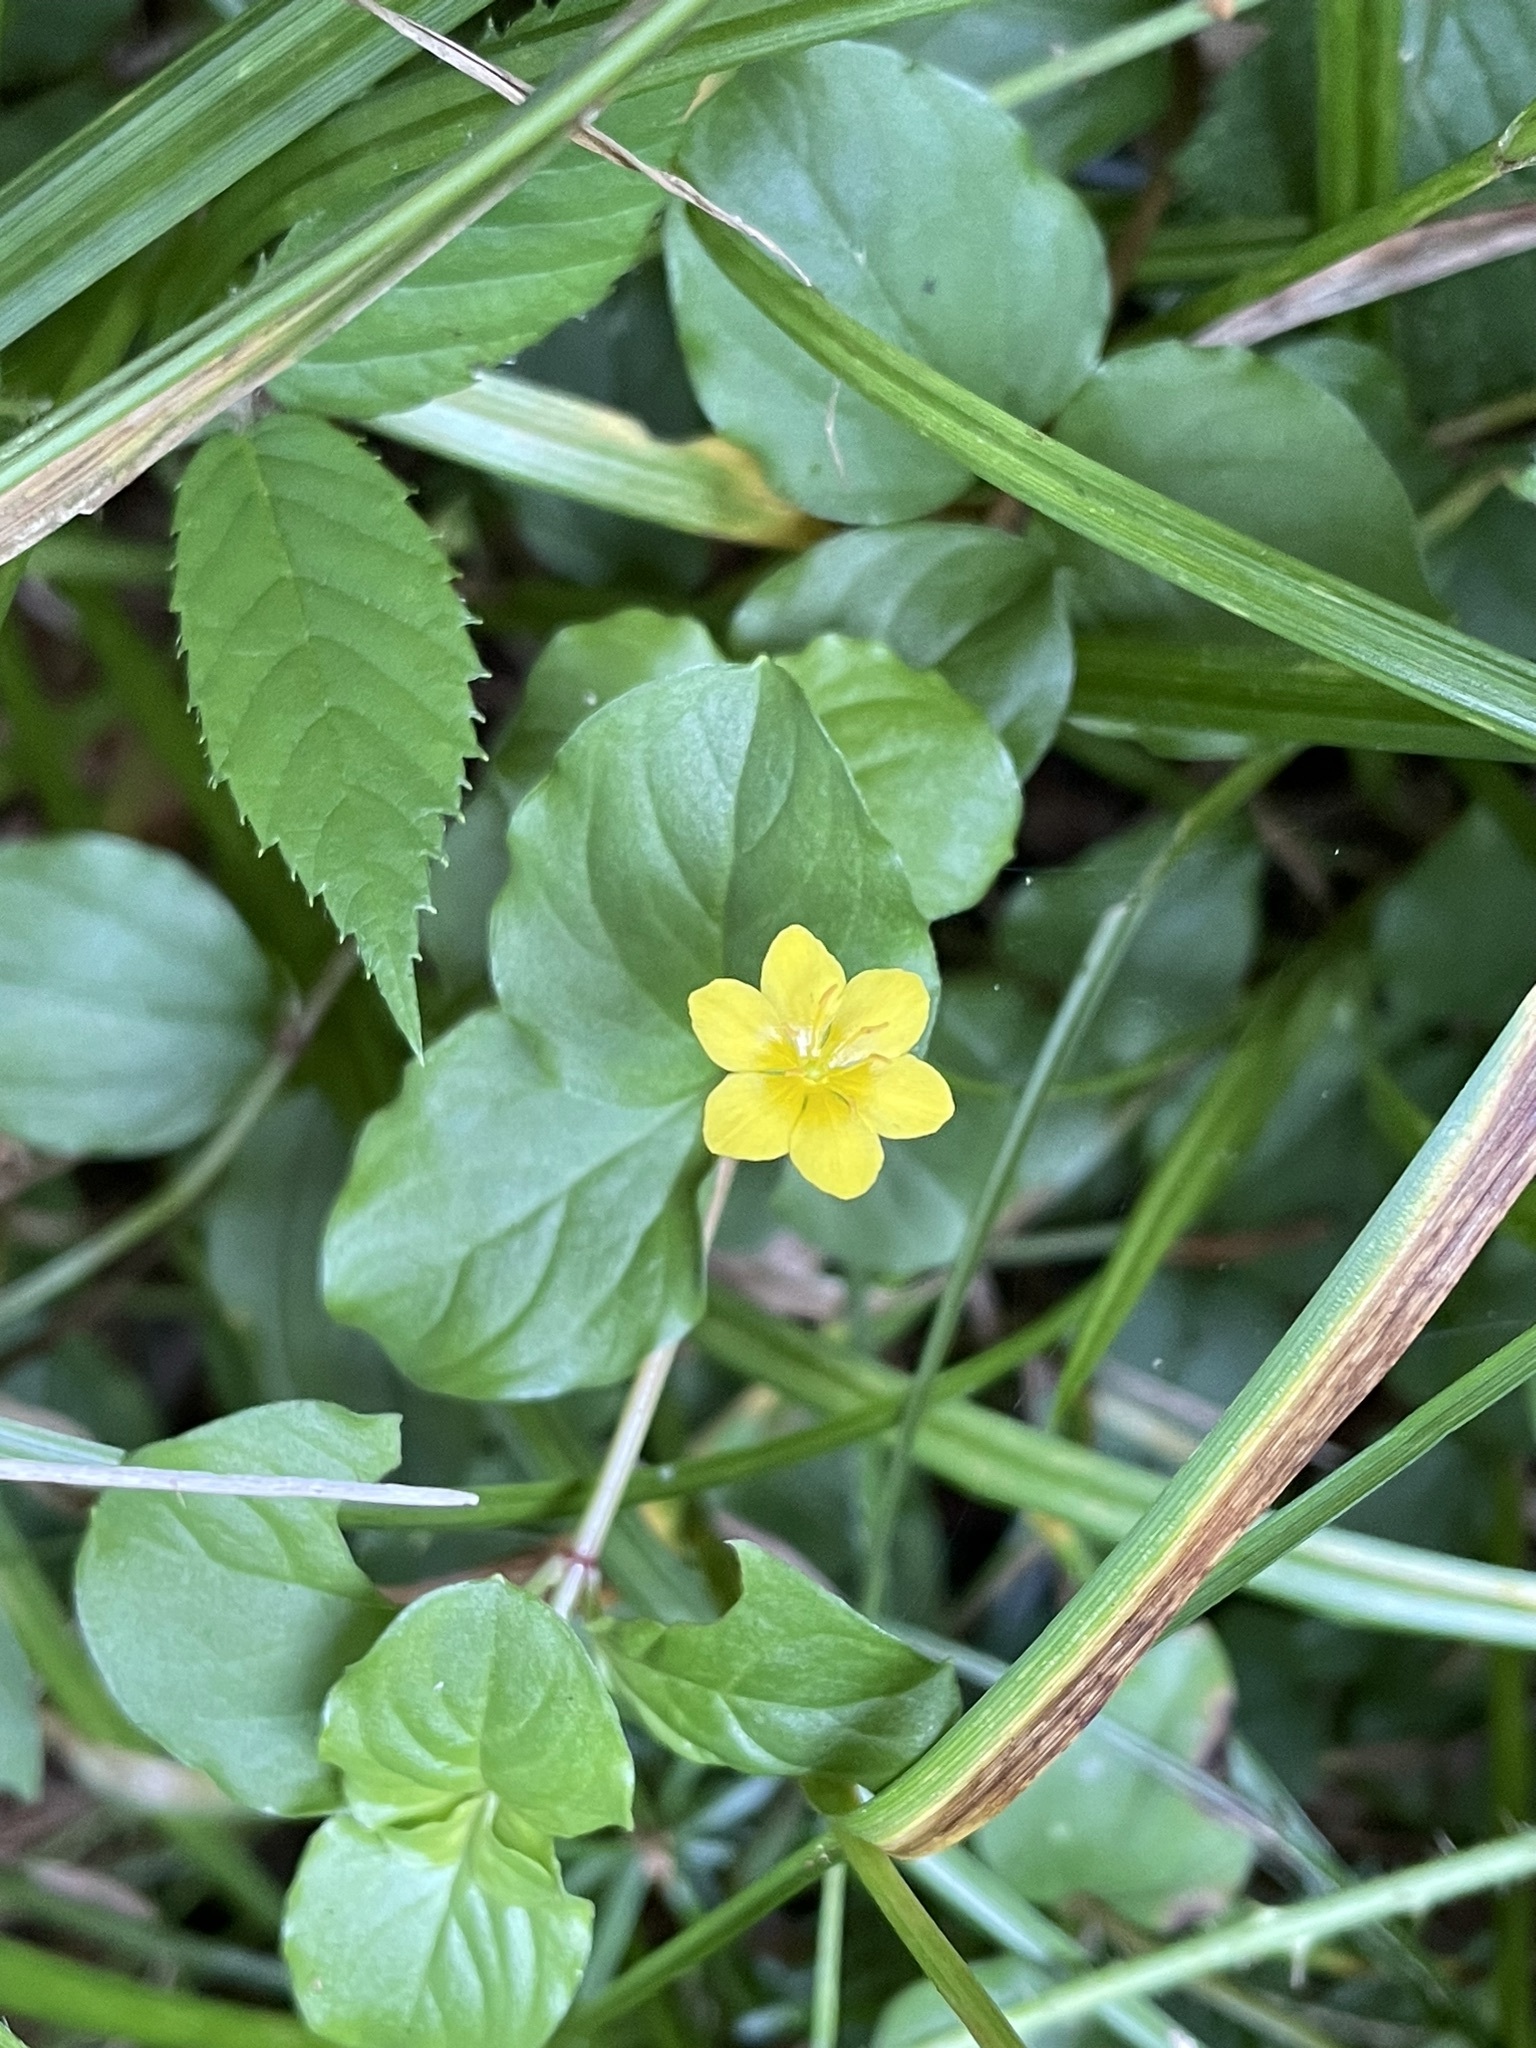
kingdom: Plantae
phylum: Tracheophyta
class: Magnoliopsida
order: Ericales
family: Primulaceae
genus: Lysimachia
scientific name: Lysimachia nemorum
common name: Yellow pimpernel
